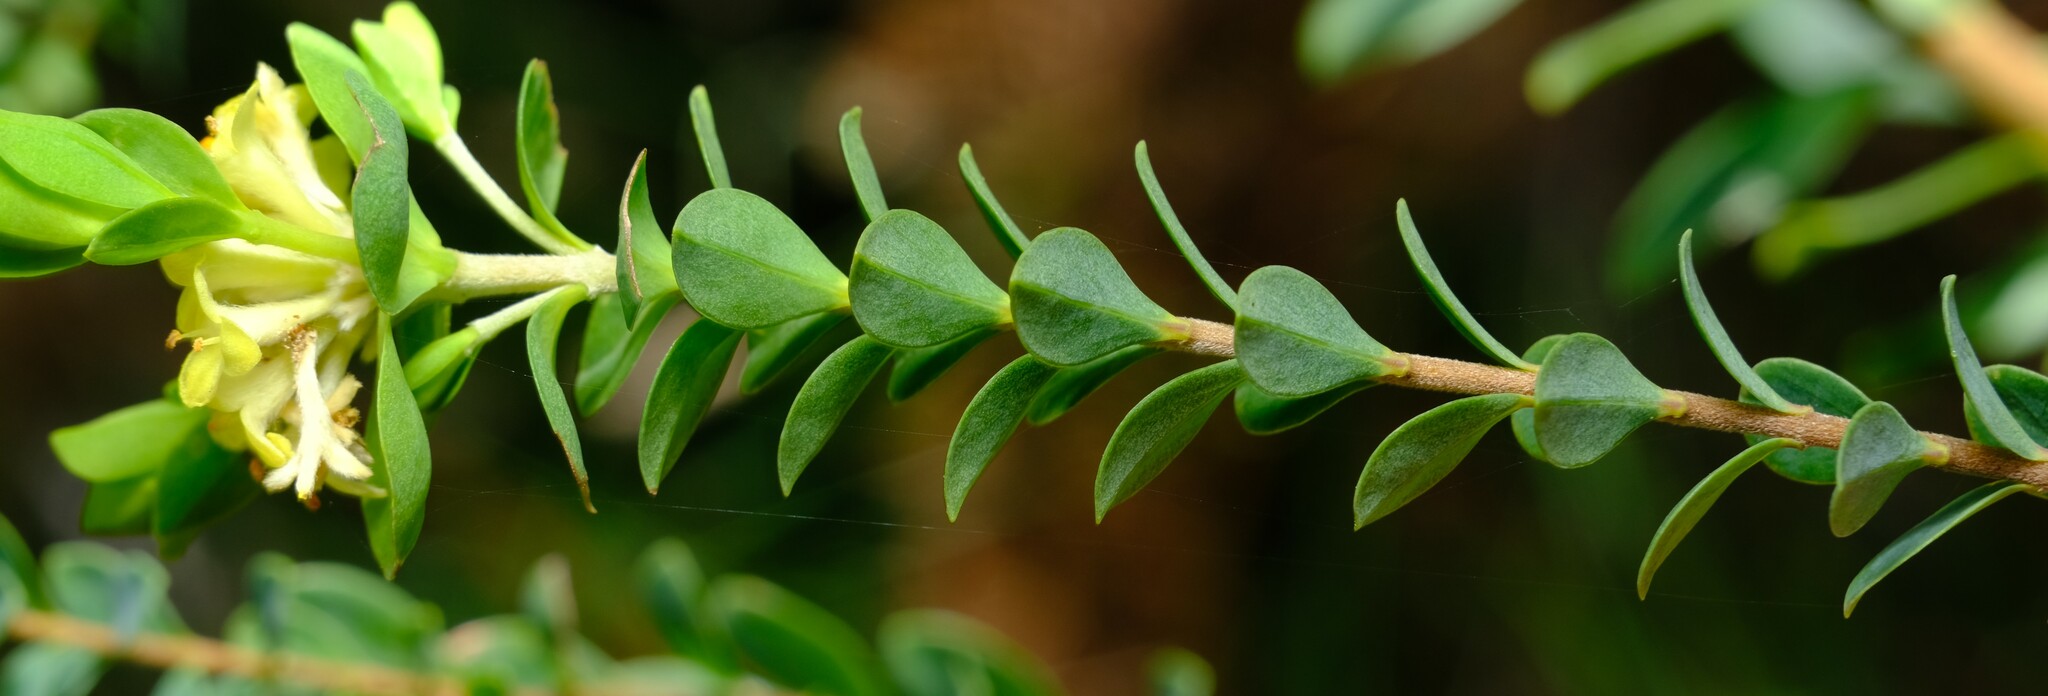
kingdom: Plantae
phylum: Tracheophyta
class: Magnoliopsida
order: Malvales
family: Thymelaeaceae
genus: Pimelea
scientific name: Pimelea flava
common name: Yellow riceflower
